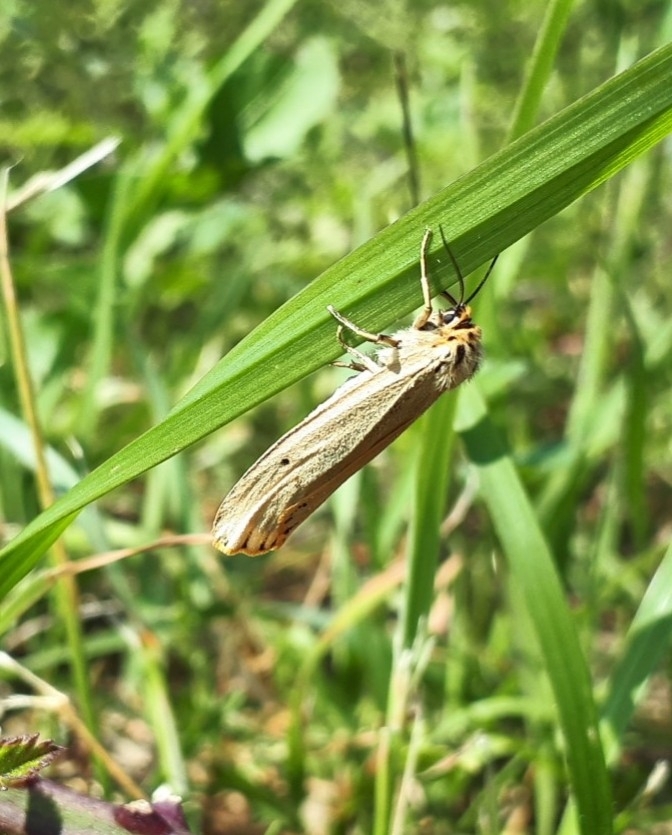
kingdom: Animalia
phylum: Arthropoda
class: Insecta
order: Lepidoptera
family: Erebidae
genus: Coscinia
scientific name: Coscinia Spiris striata
